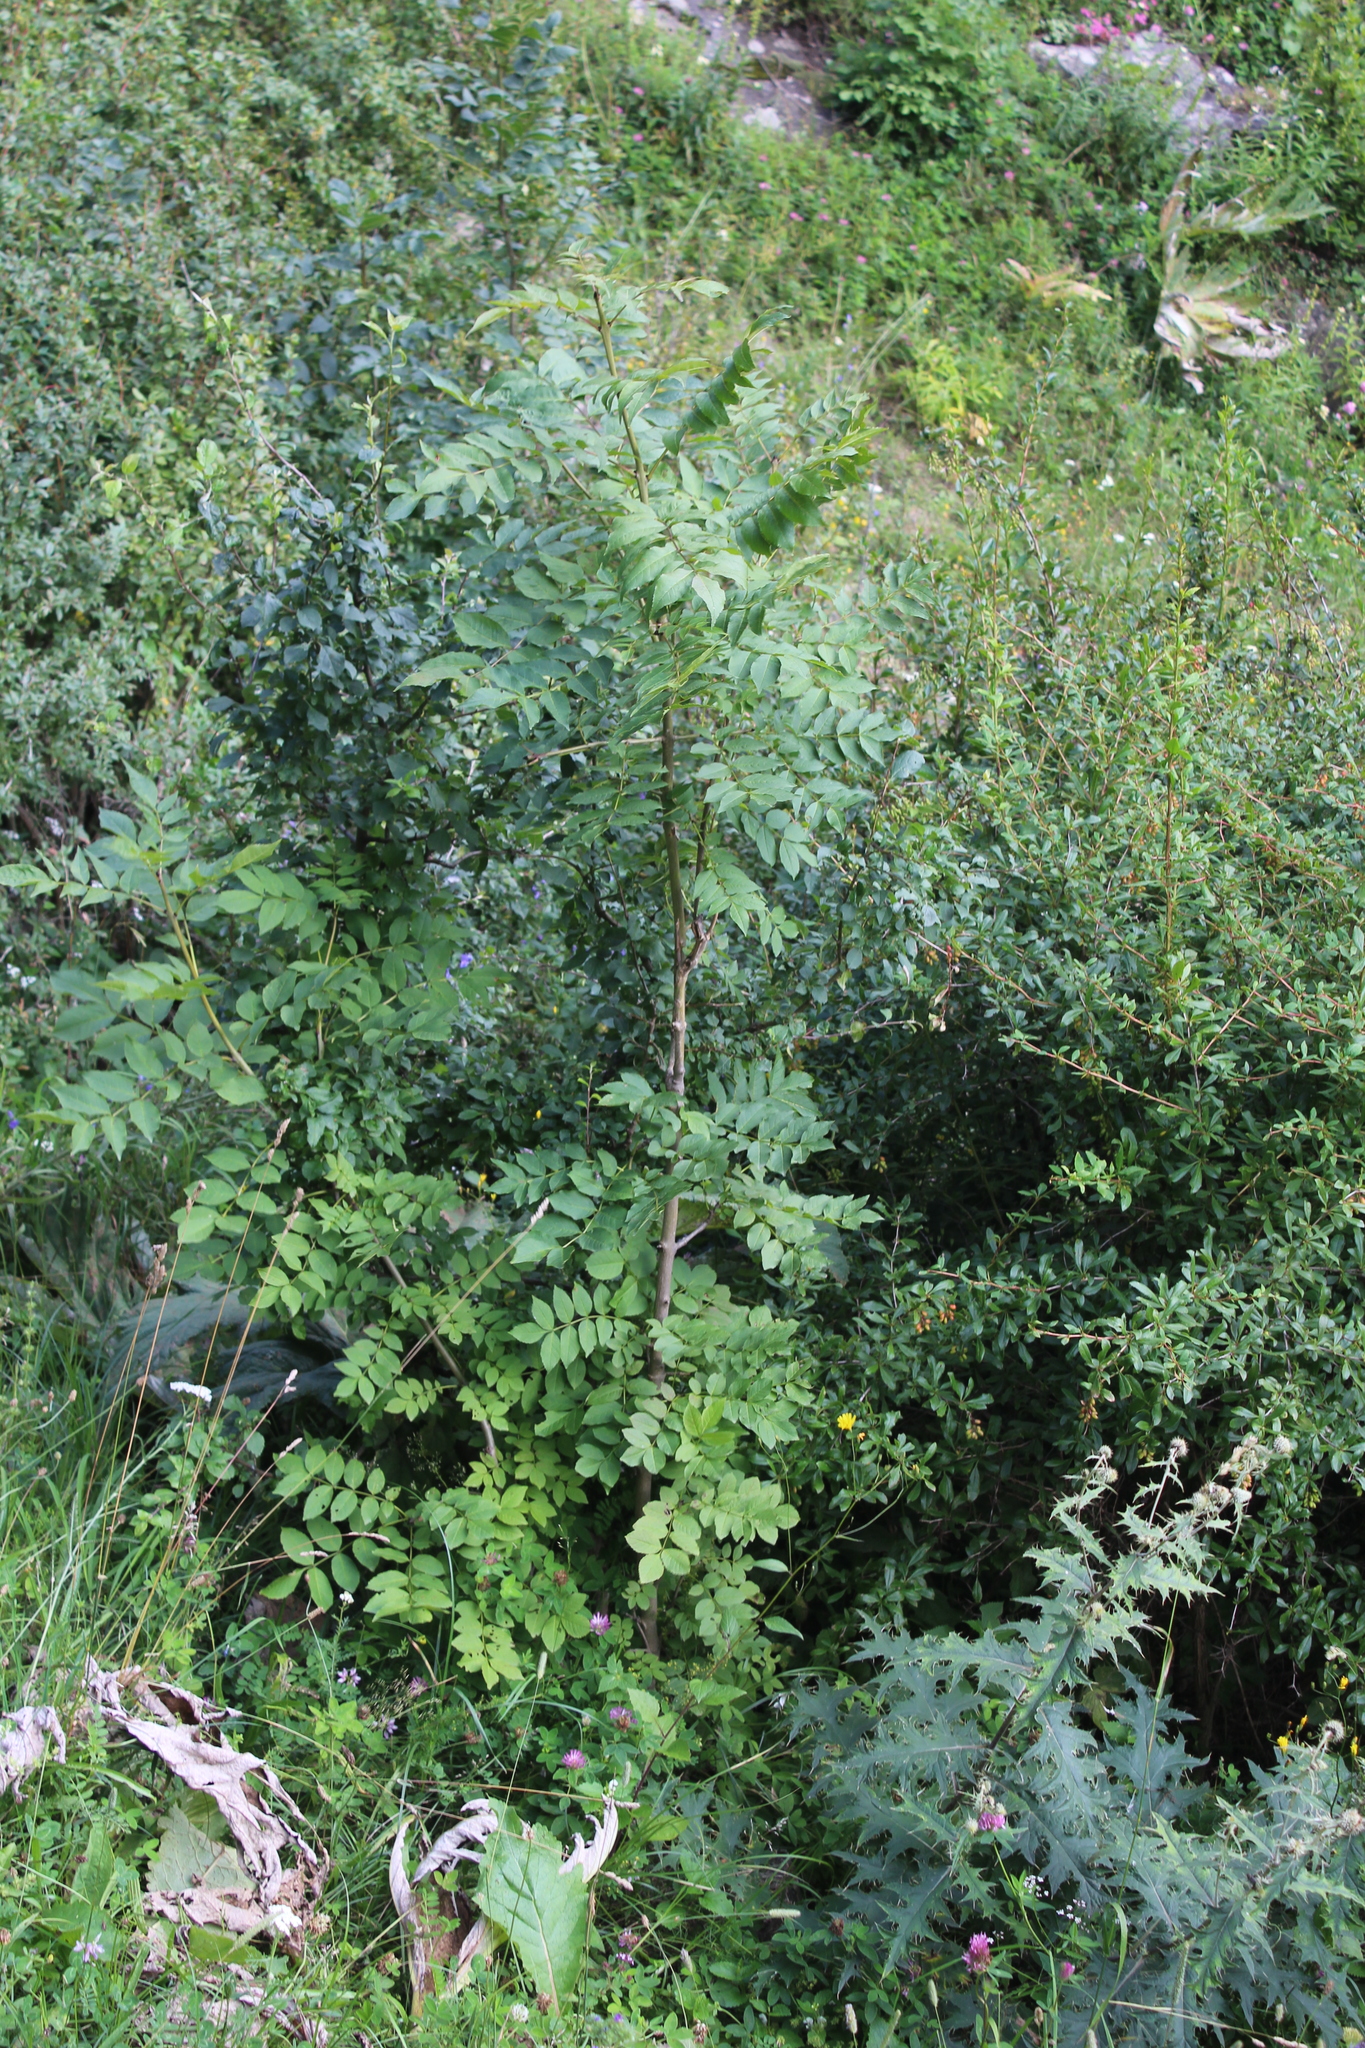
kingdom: Plantae
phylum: Tracheophyta
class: Magnoliopsida
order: Lamiales
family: Oleaceae
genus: Fraxinus
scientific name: Fraxinus excelsior
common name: European ash
